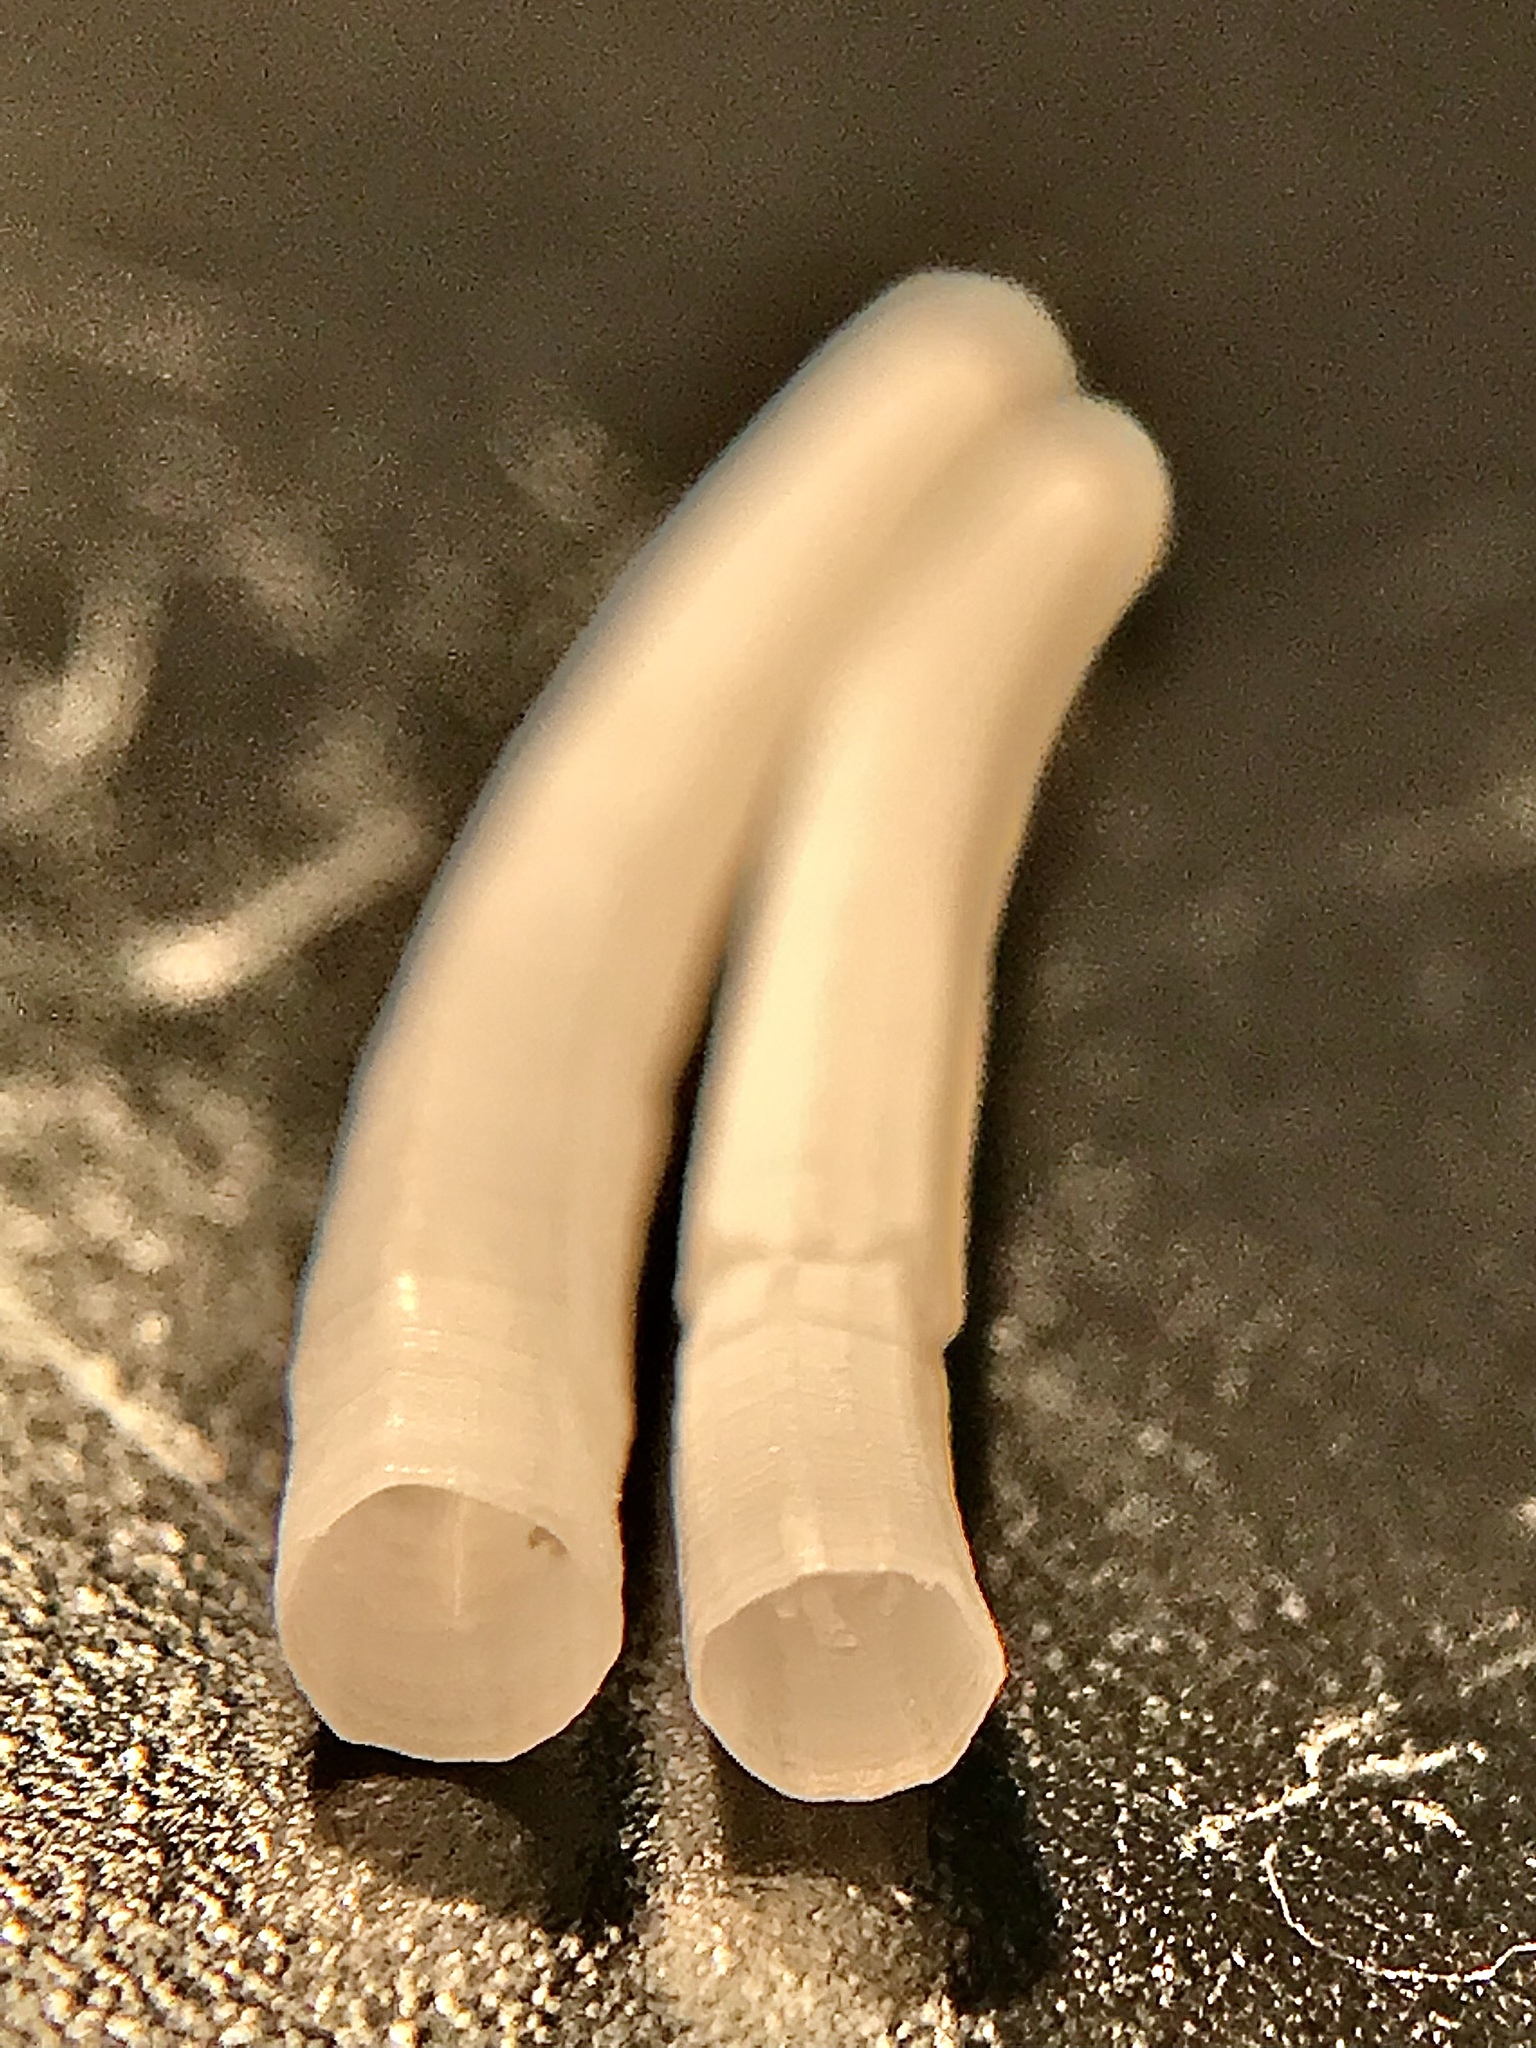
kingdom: Animalia
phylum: Mollusca
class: Scaphopoda
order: Dentaliida
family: Dentaliidae
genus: Paradentalium
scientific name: Paradentalium americanum
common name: American tuskshell
